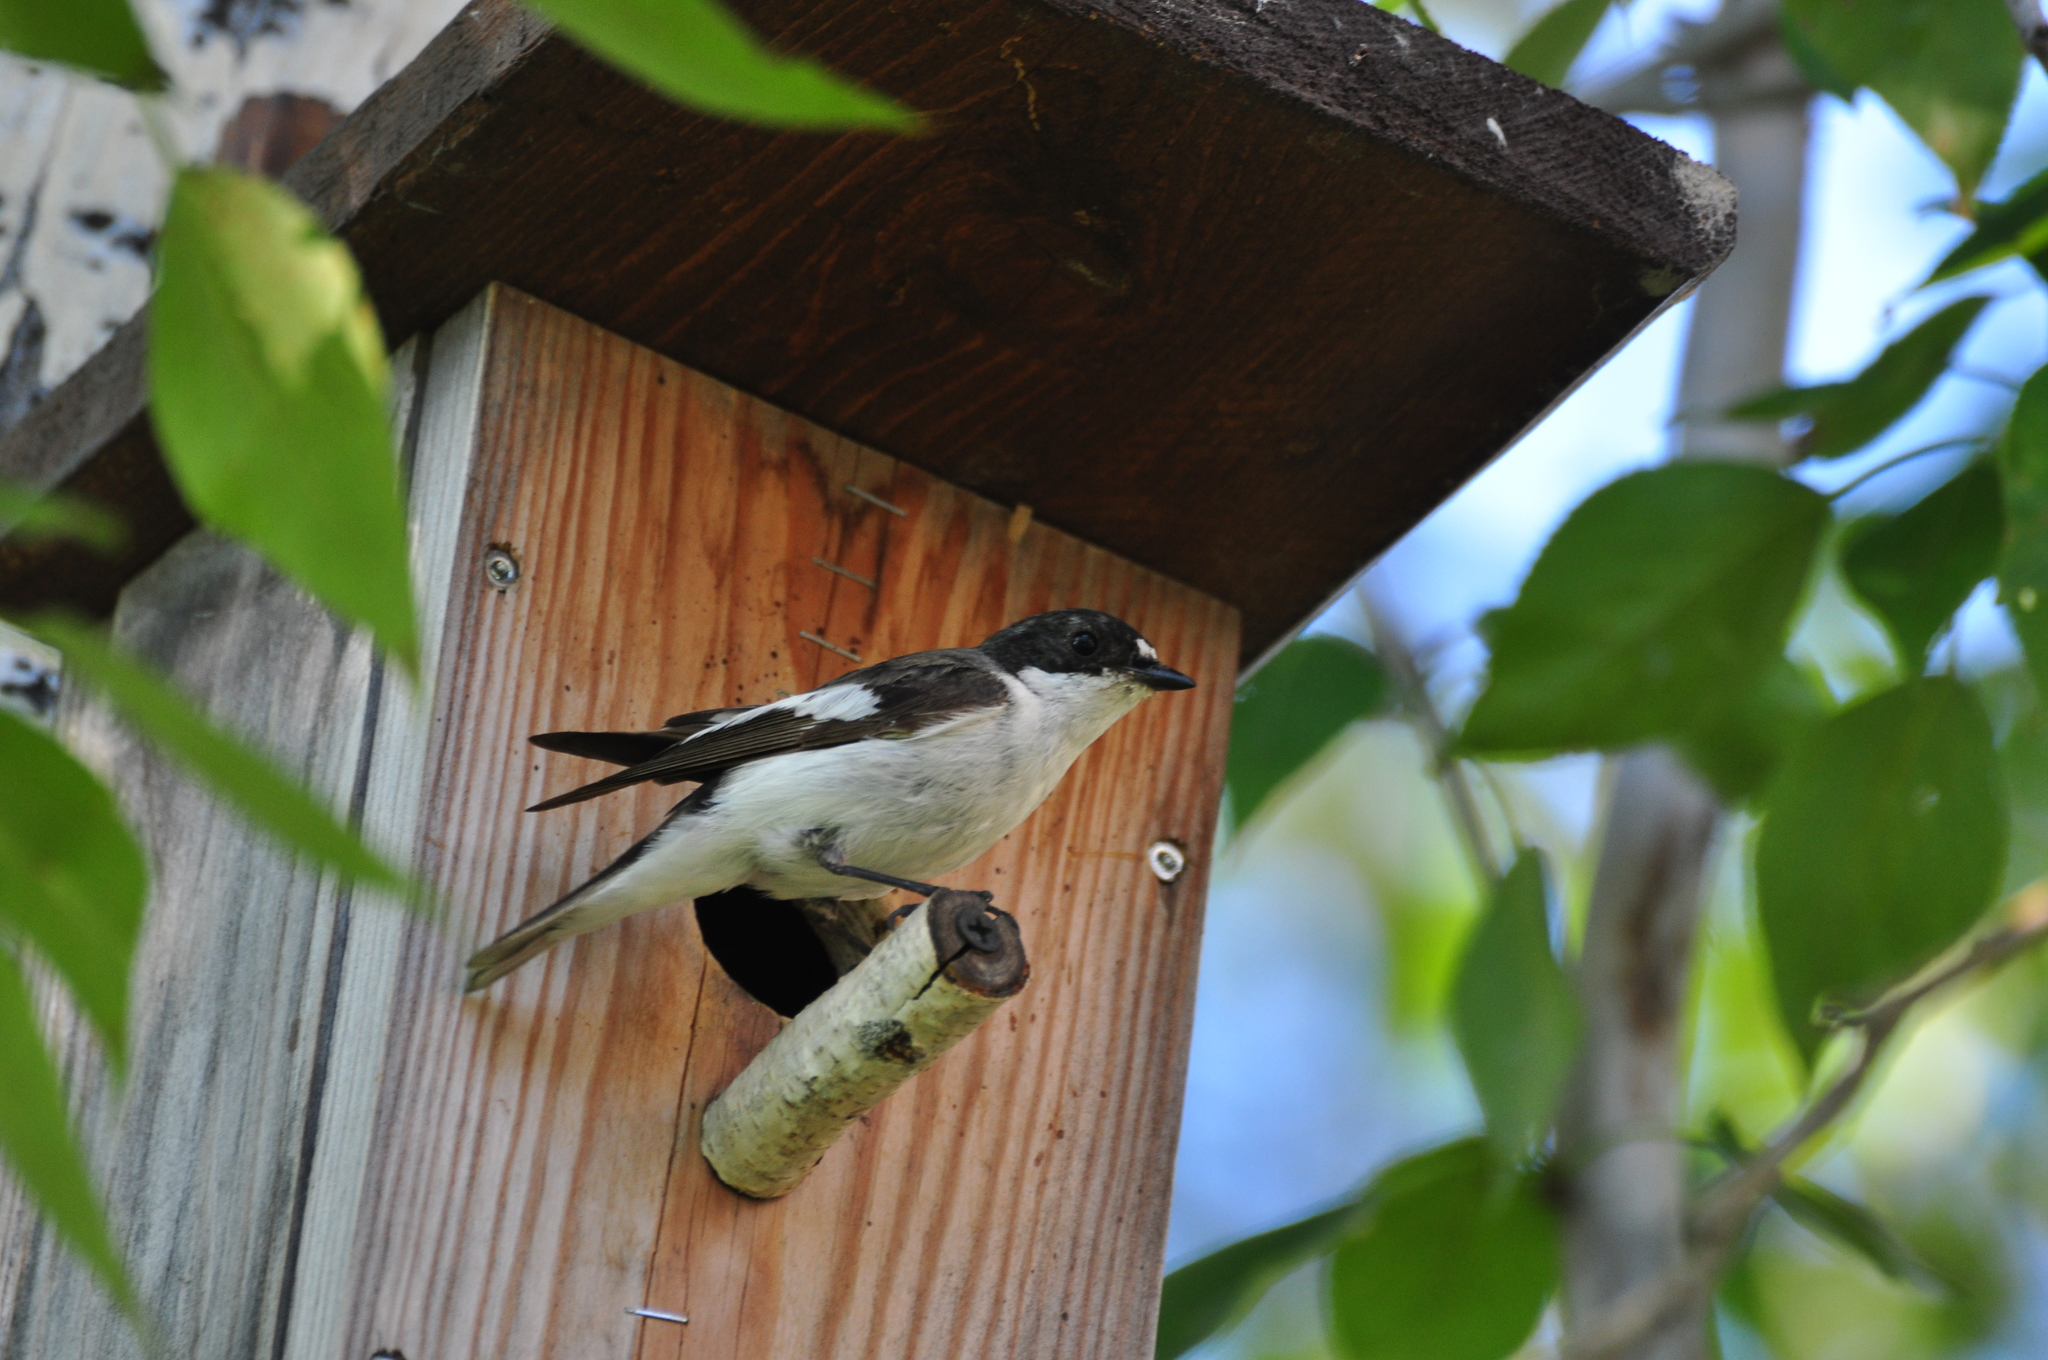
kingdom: Animalia
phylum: Chordata
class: Aves
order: Passeriformes
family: Muscicapidae
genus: Ficedula
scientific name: Ficedula hypoleuca
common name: European pied flycatcher
